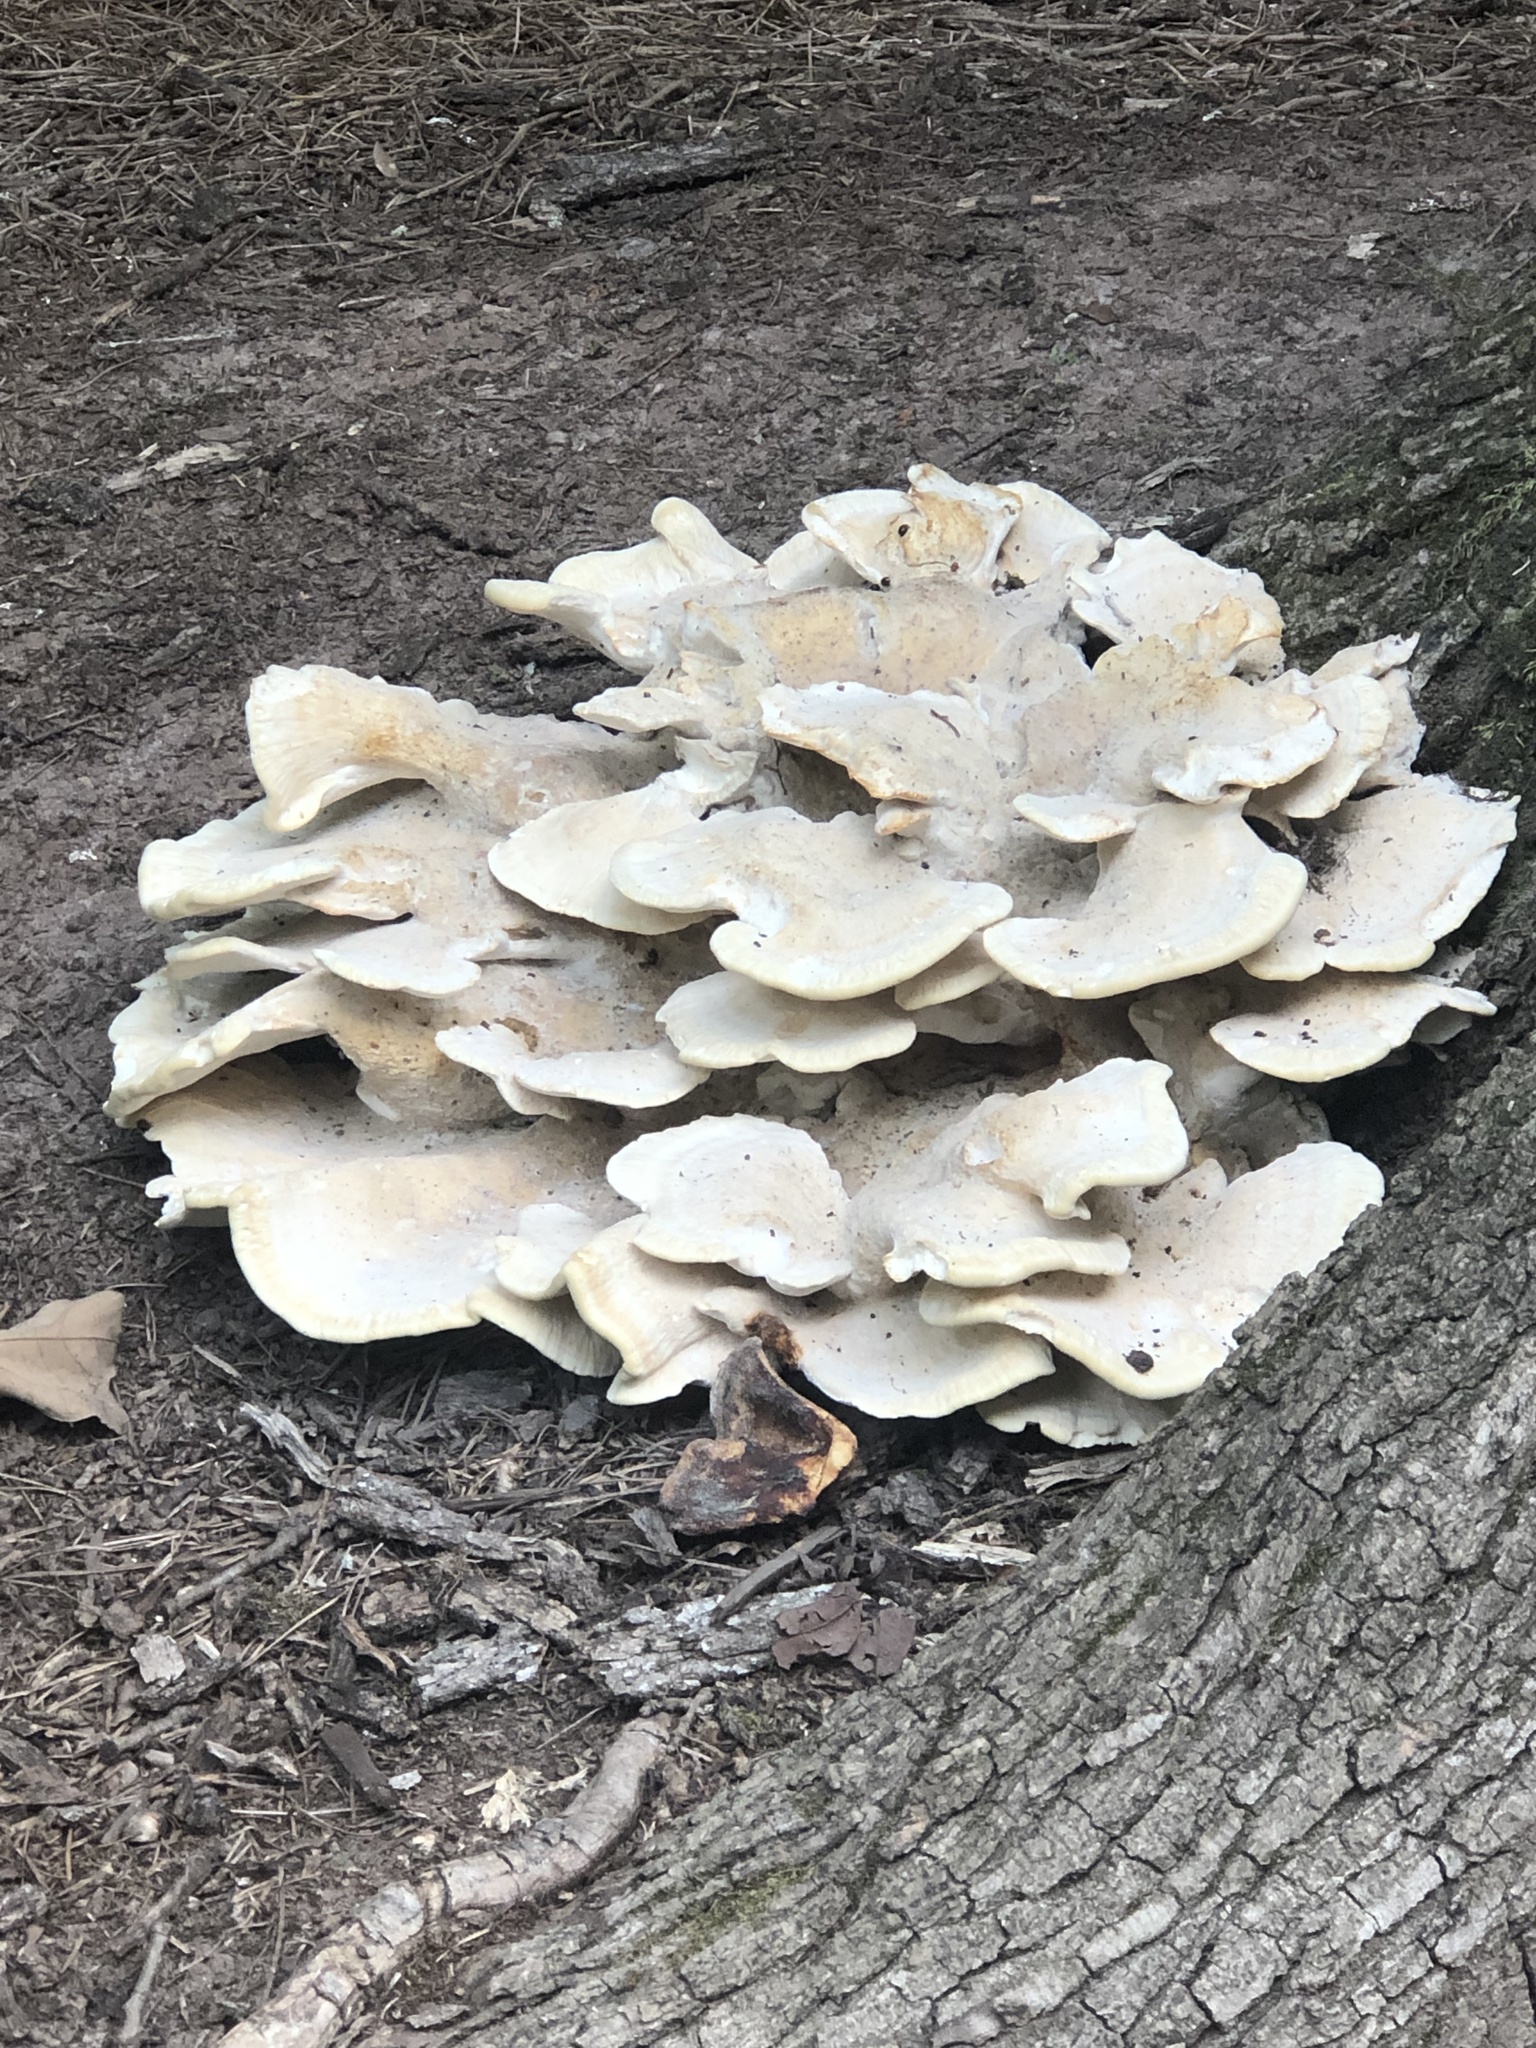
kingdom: Fungi
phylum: Basidiomycota
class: Agaricomycetes
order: Russulales
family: Bondarzewiaceae
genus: Bondarzewia
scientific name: Bondarzewia berkeleyi
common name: Berkeley's polypore
